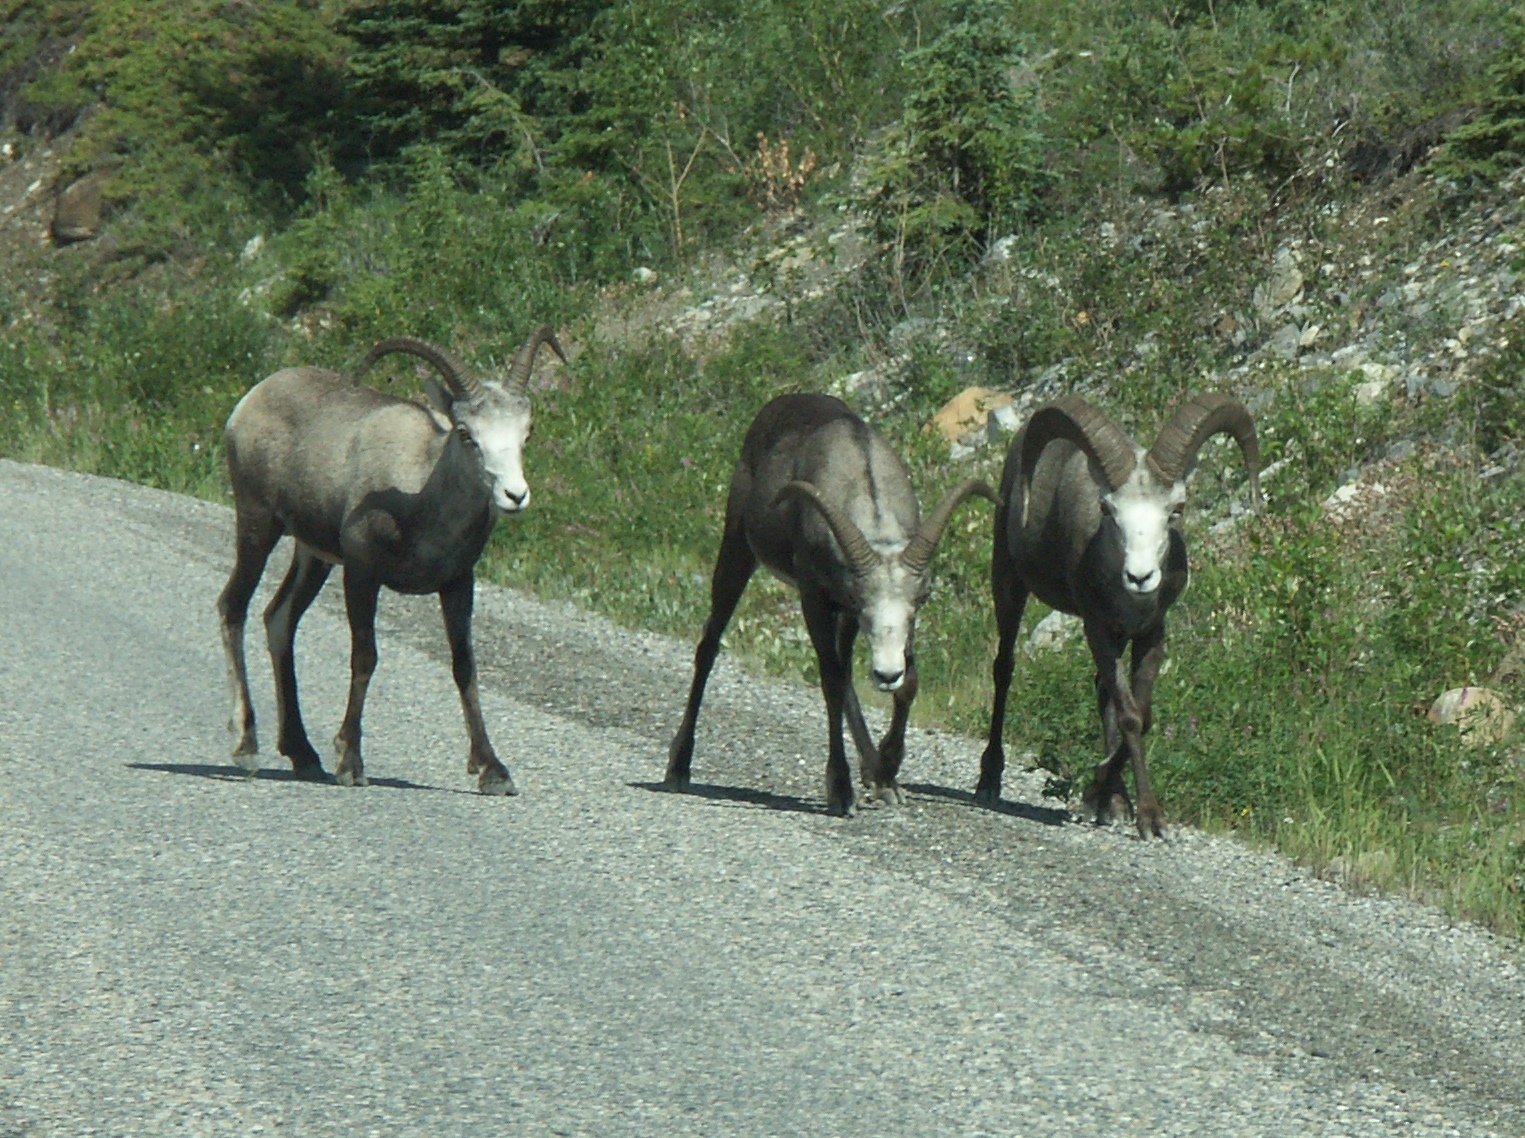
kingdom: Animalia
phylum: Chordata
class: Mammalia
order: Artiodactyla
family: Bovidae
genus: Ovis
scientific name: Ovis dalli
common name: Dall's sheep
